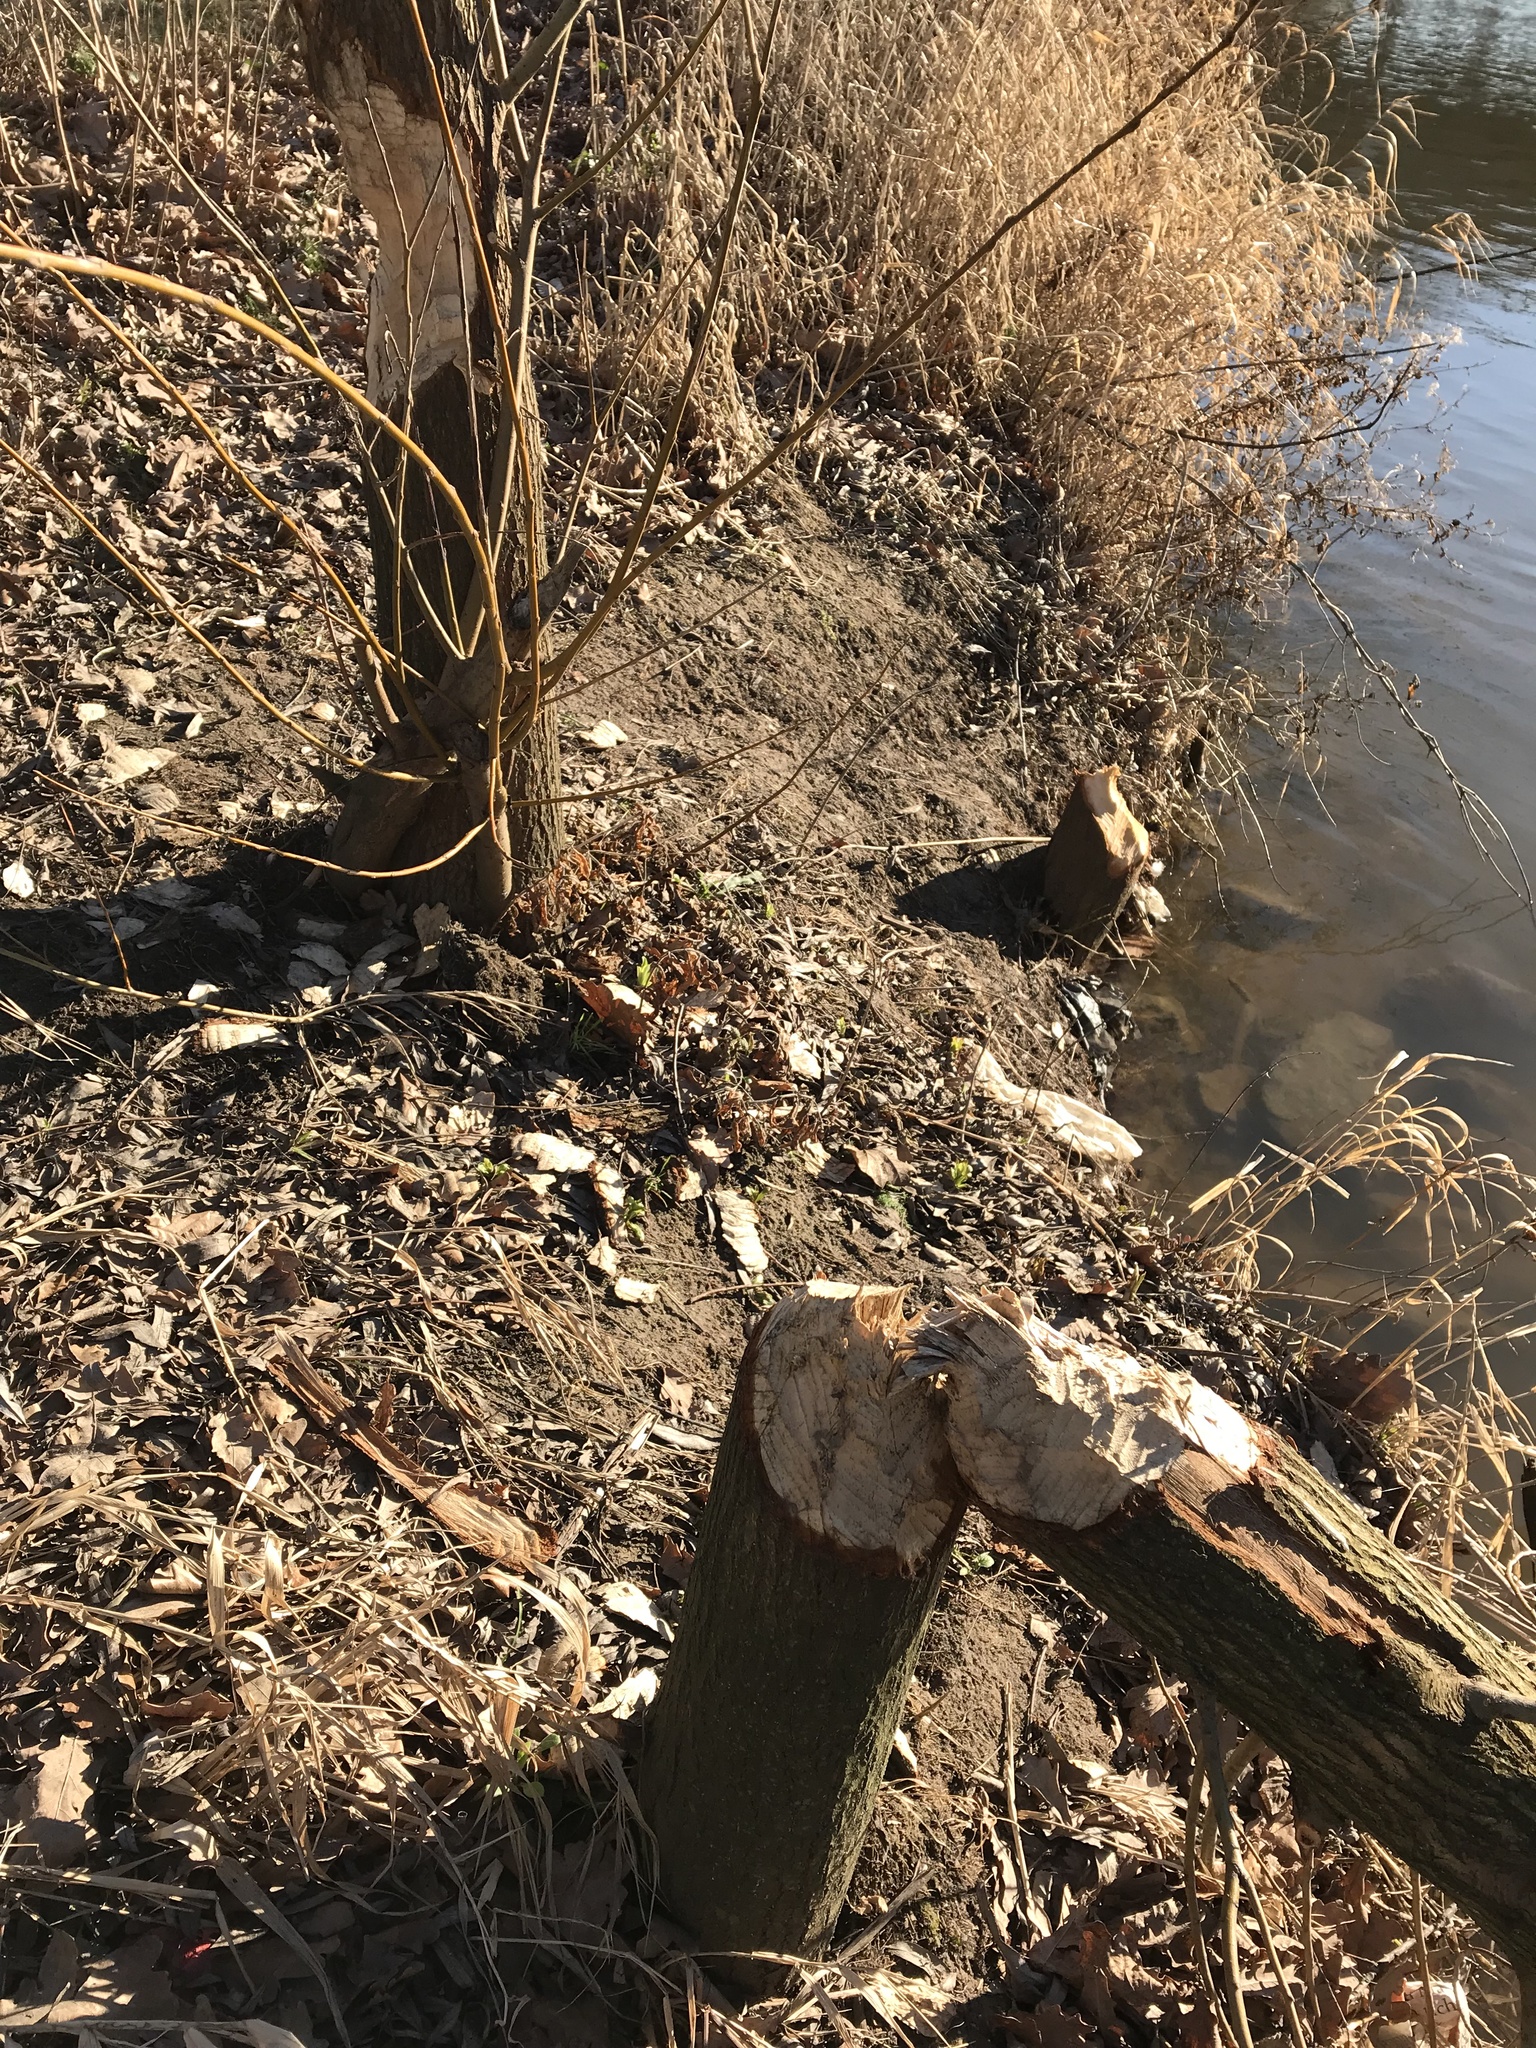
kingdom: Animalia
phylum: Chordata
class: Mammalia
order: Rodentia
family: Castoridae
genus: Castor
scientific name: Castor fiber
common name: Eurasian beaver
